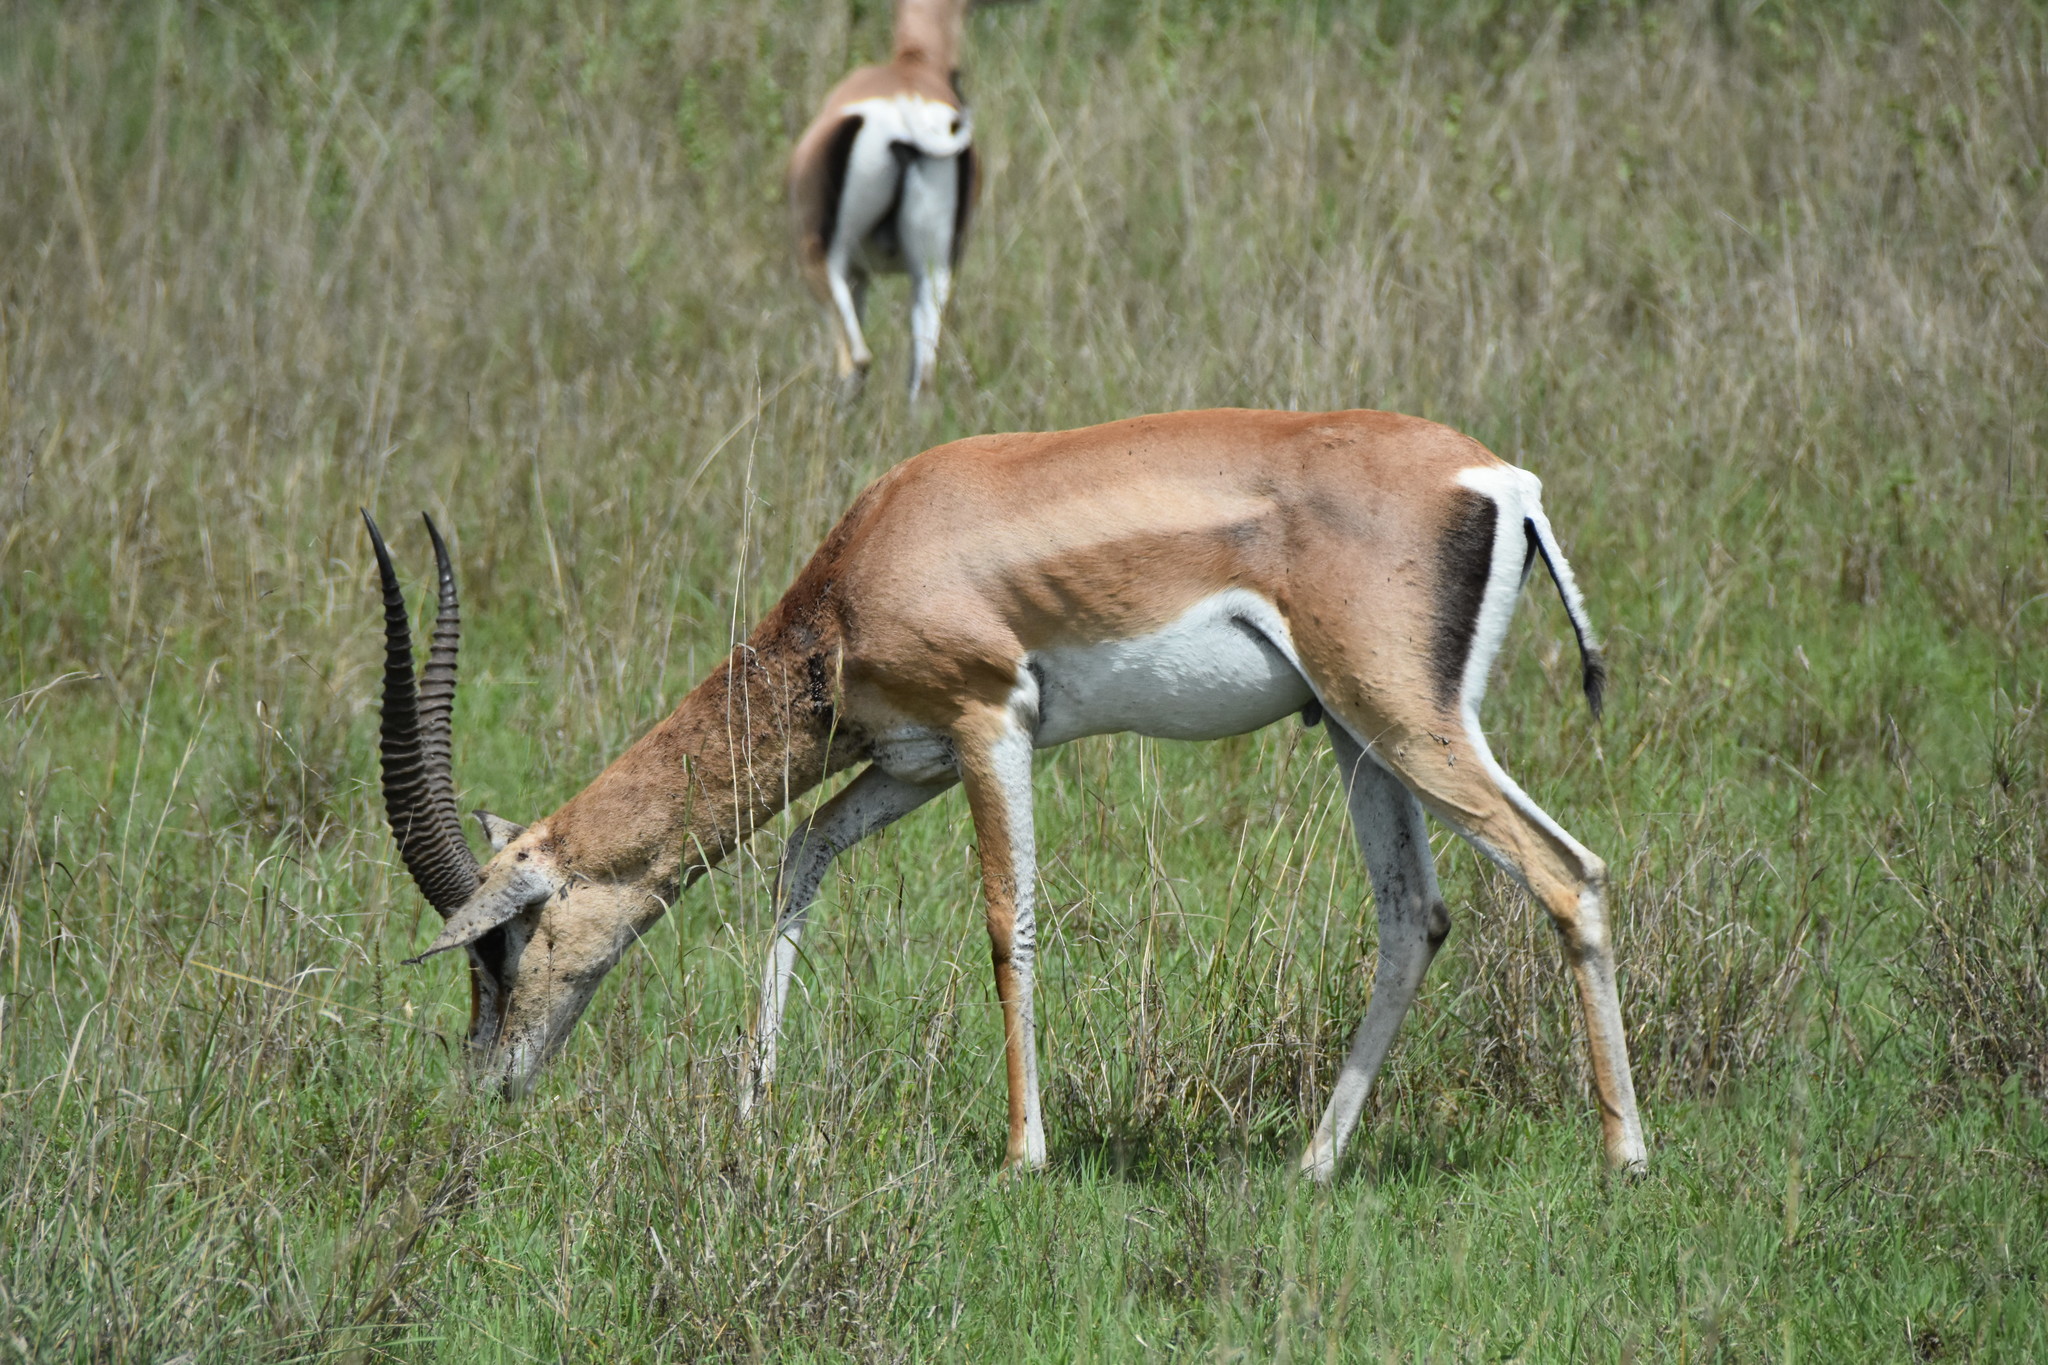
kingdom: Animalia
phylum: Chordata
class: Mammalia
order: Artiodactyla
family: Bovidae
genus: Nanger
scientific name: Nanger granti
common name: Grant's gazelle
